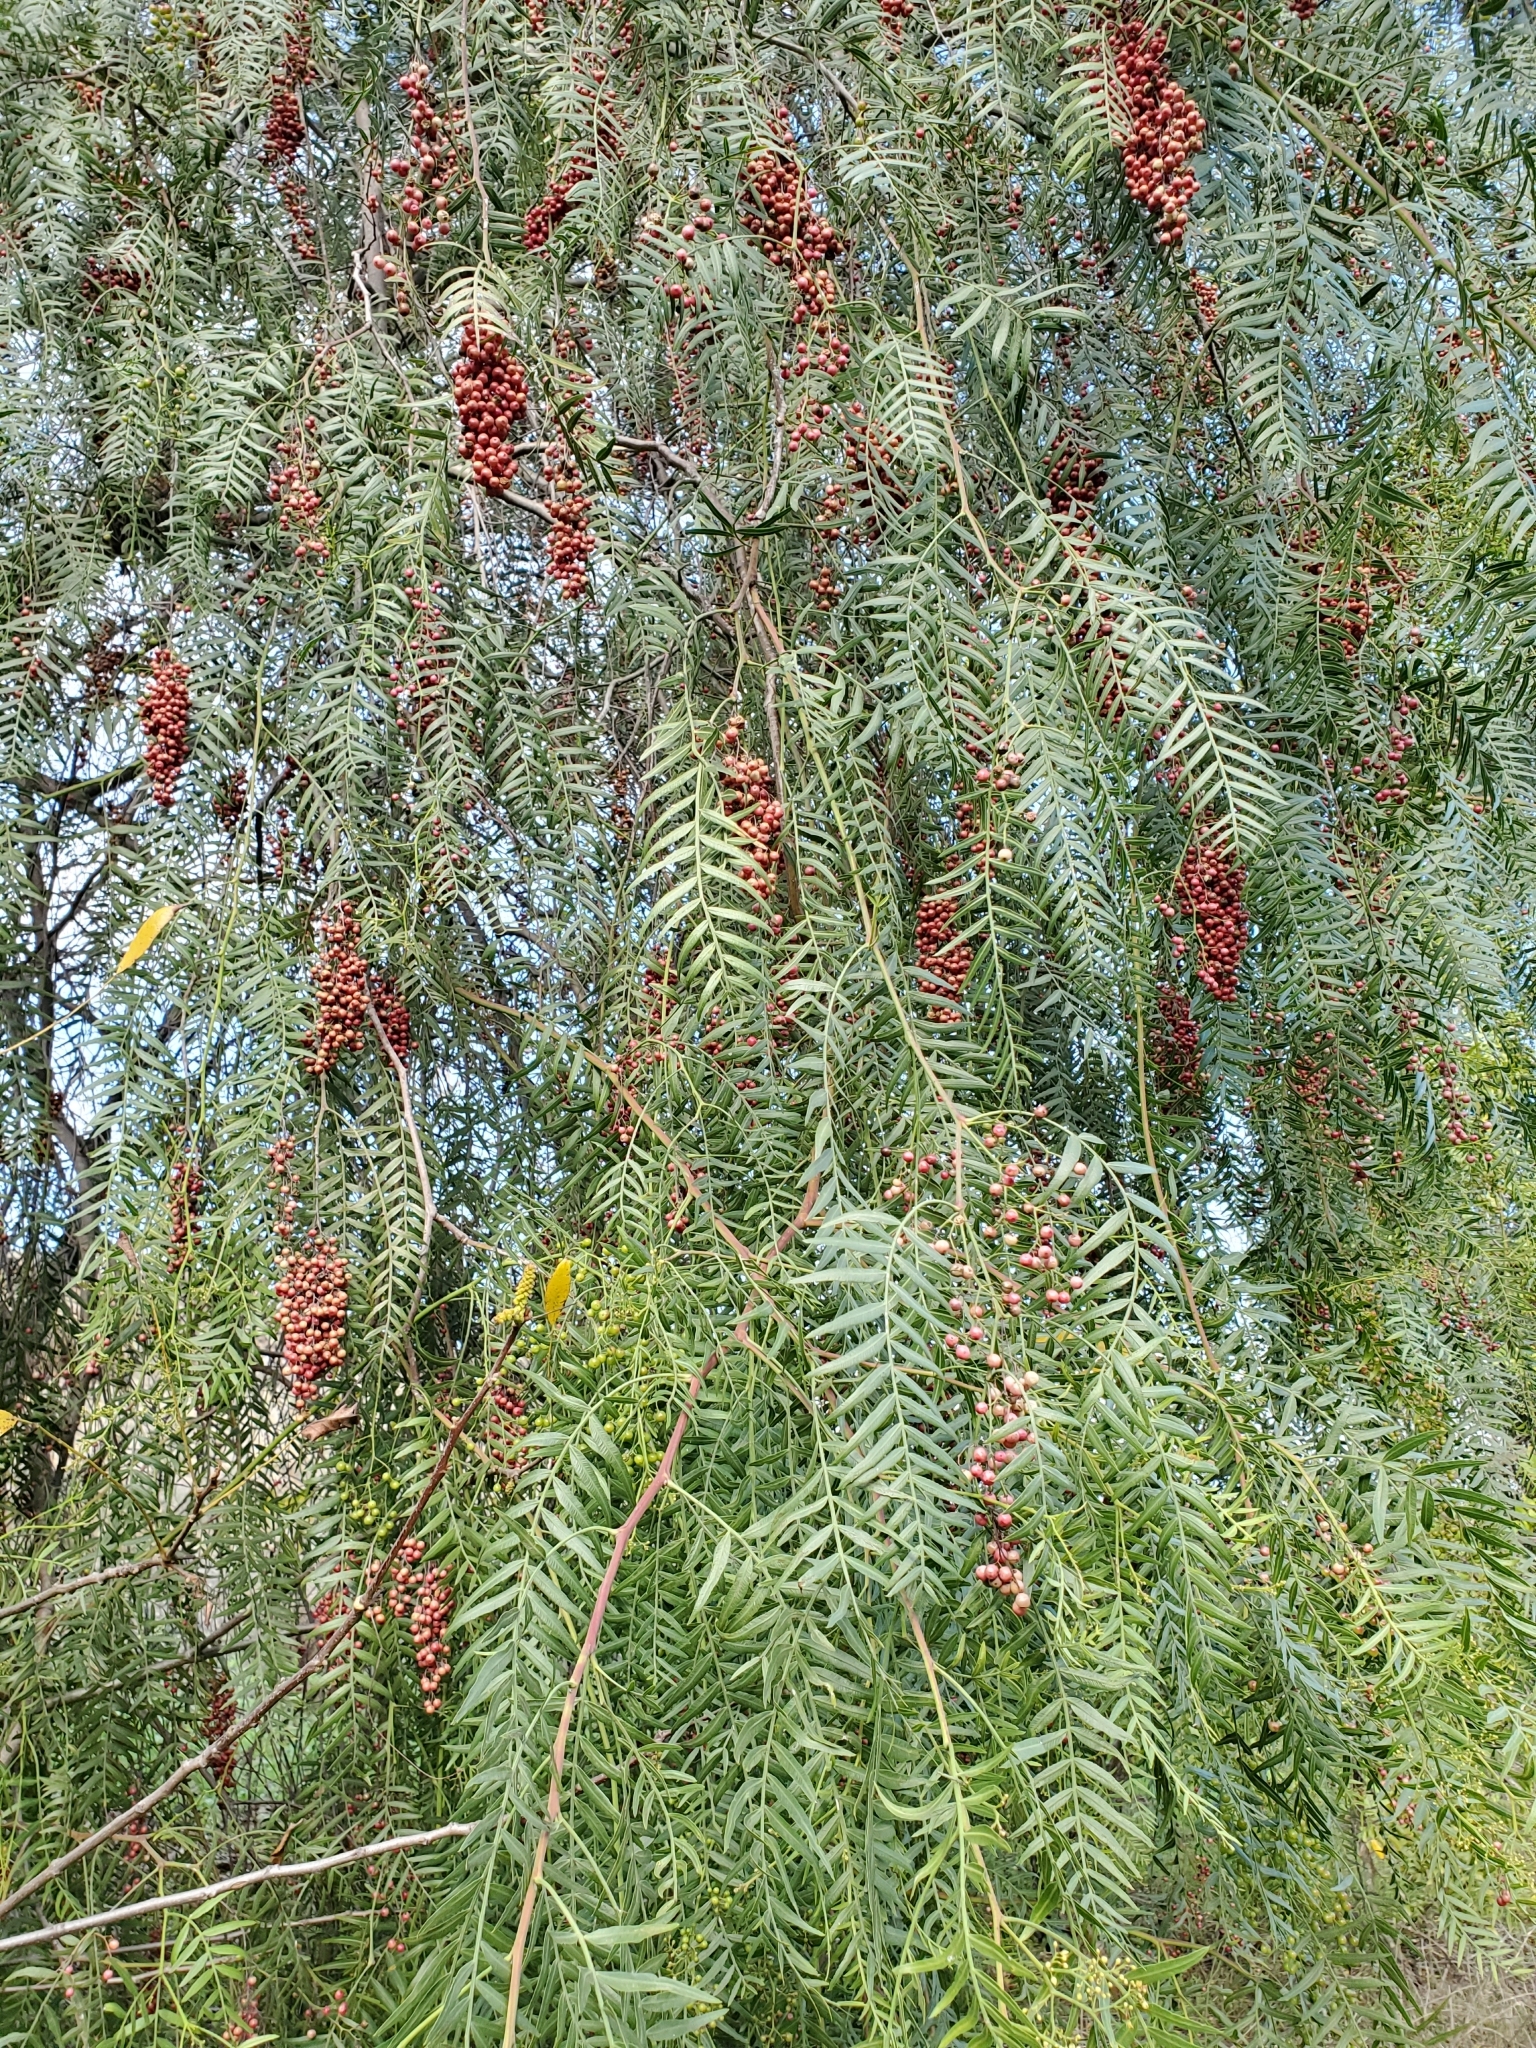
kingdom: Plantae
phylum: Tracheophyta
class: Magnoliopsida
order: Sapindales
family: Anacardiaceae
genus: Schinus
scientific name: Schinus molle
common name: Peruvian peppertree
